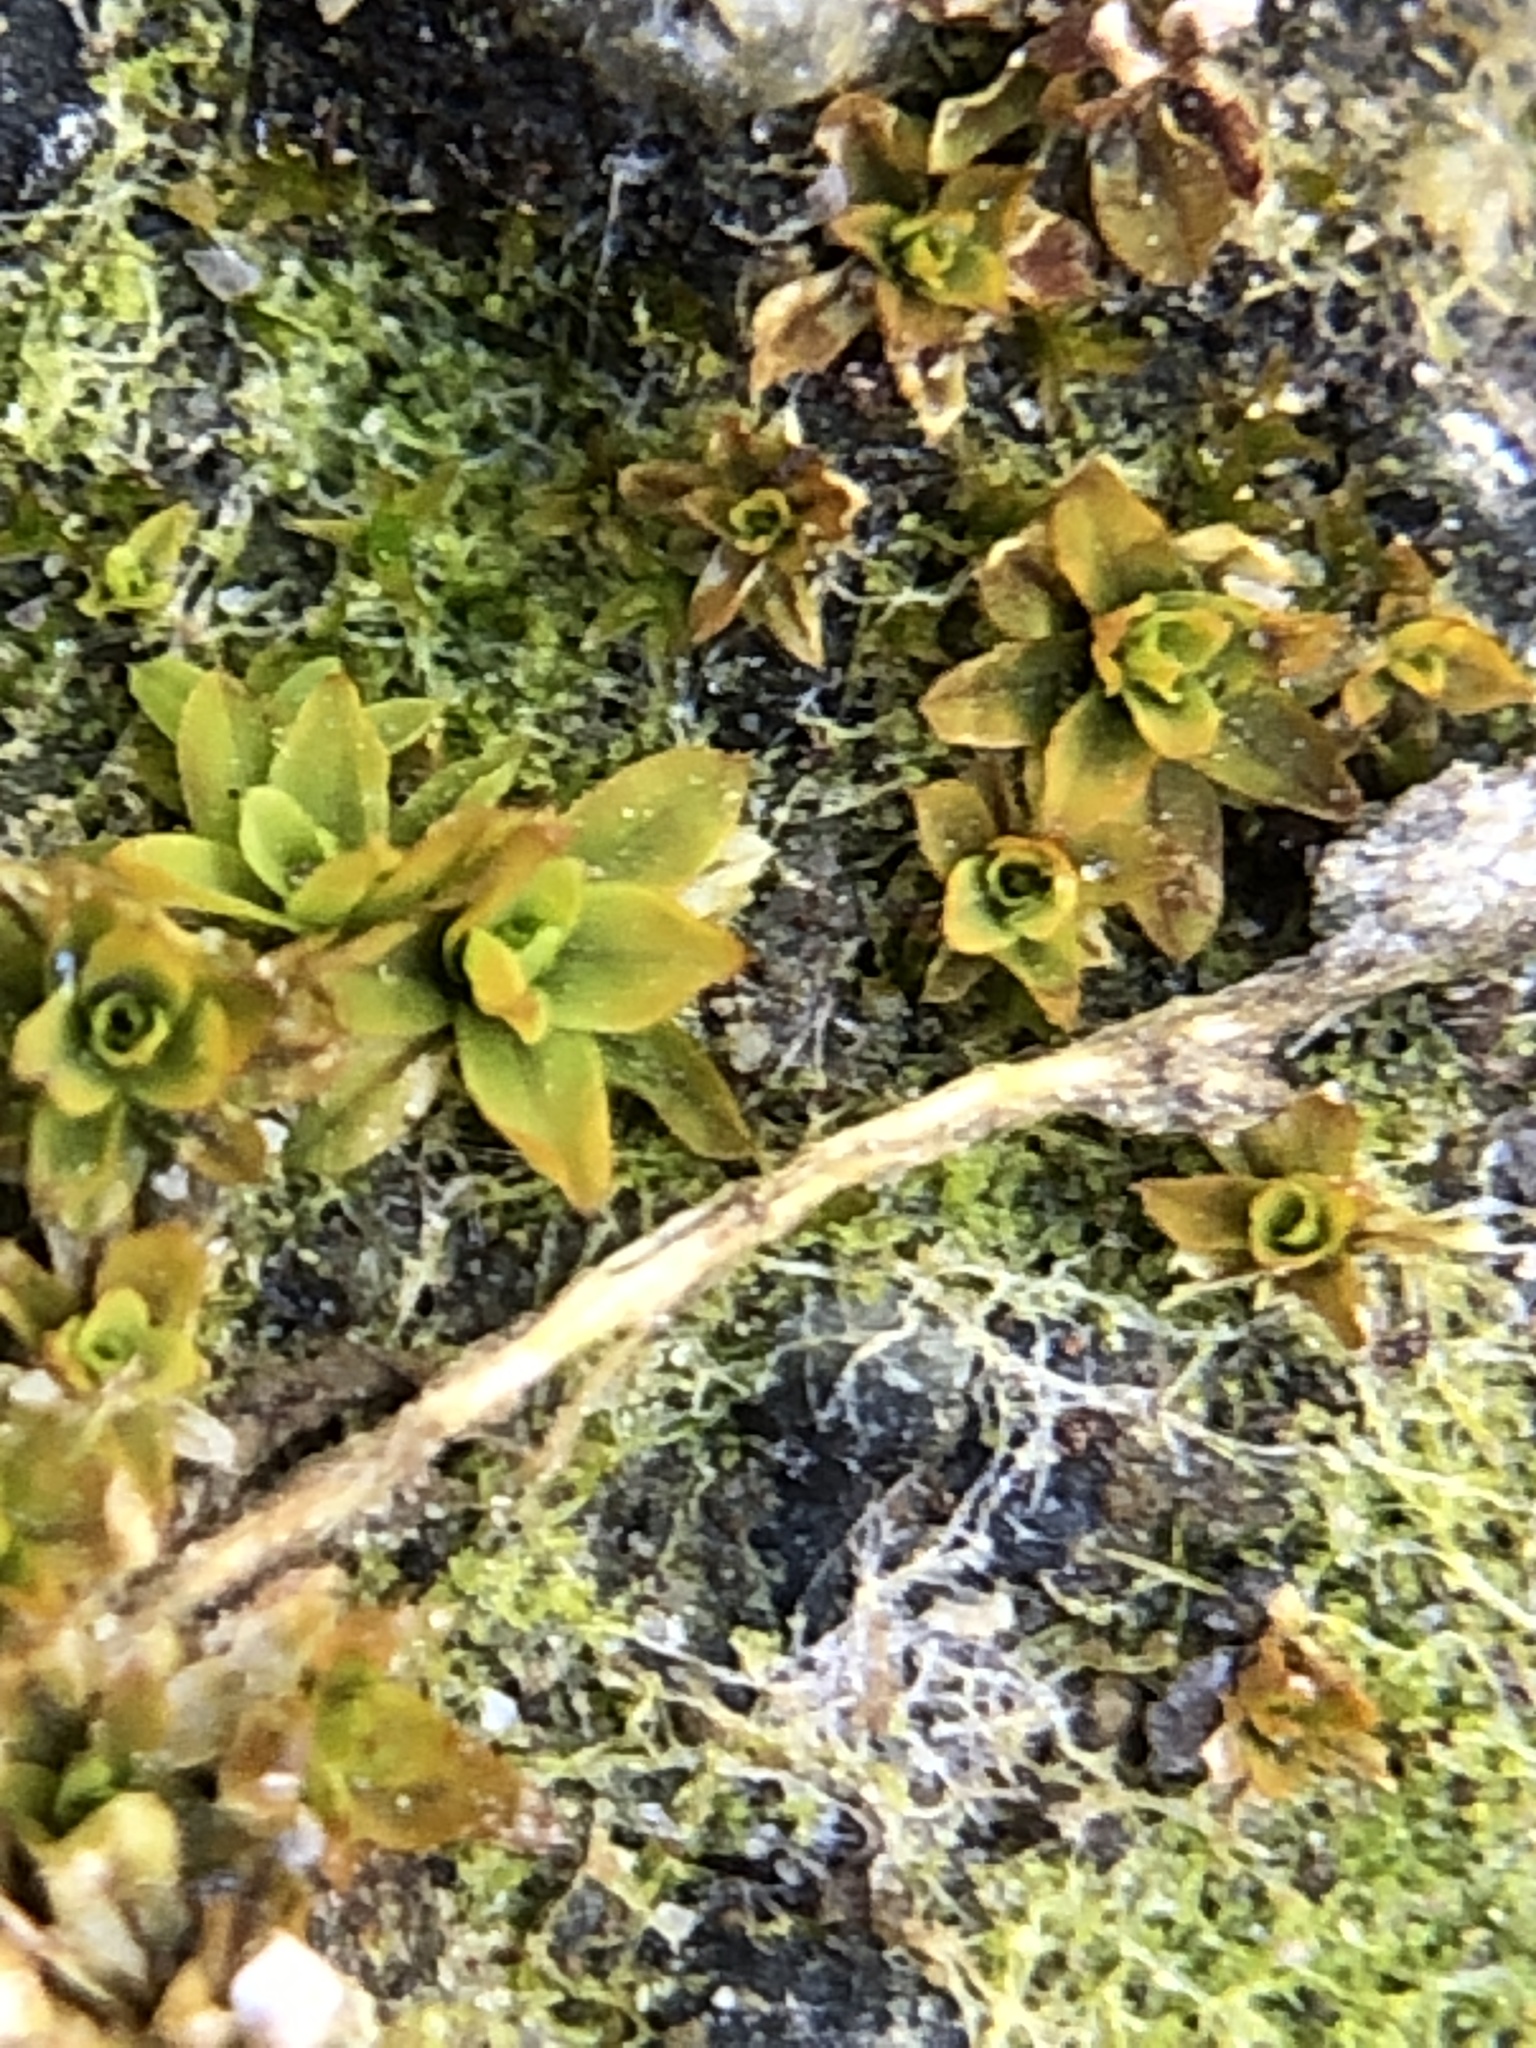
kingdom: Plantae
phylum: Bryophyta
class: Bryopsida
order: Pottiales
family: Pottiaceae
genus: Hennediella
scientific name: Hennediella stanfordensis
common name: Stanford screw-moss
